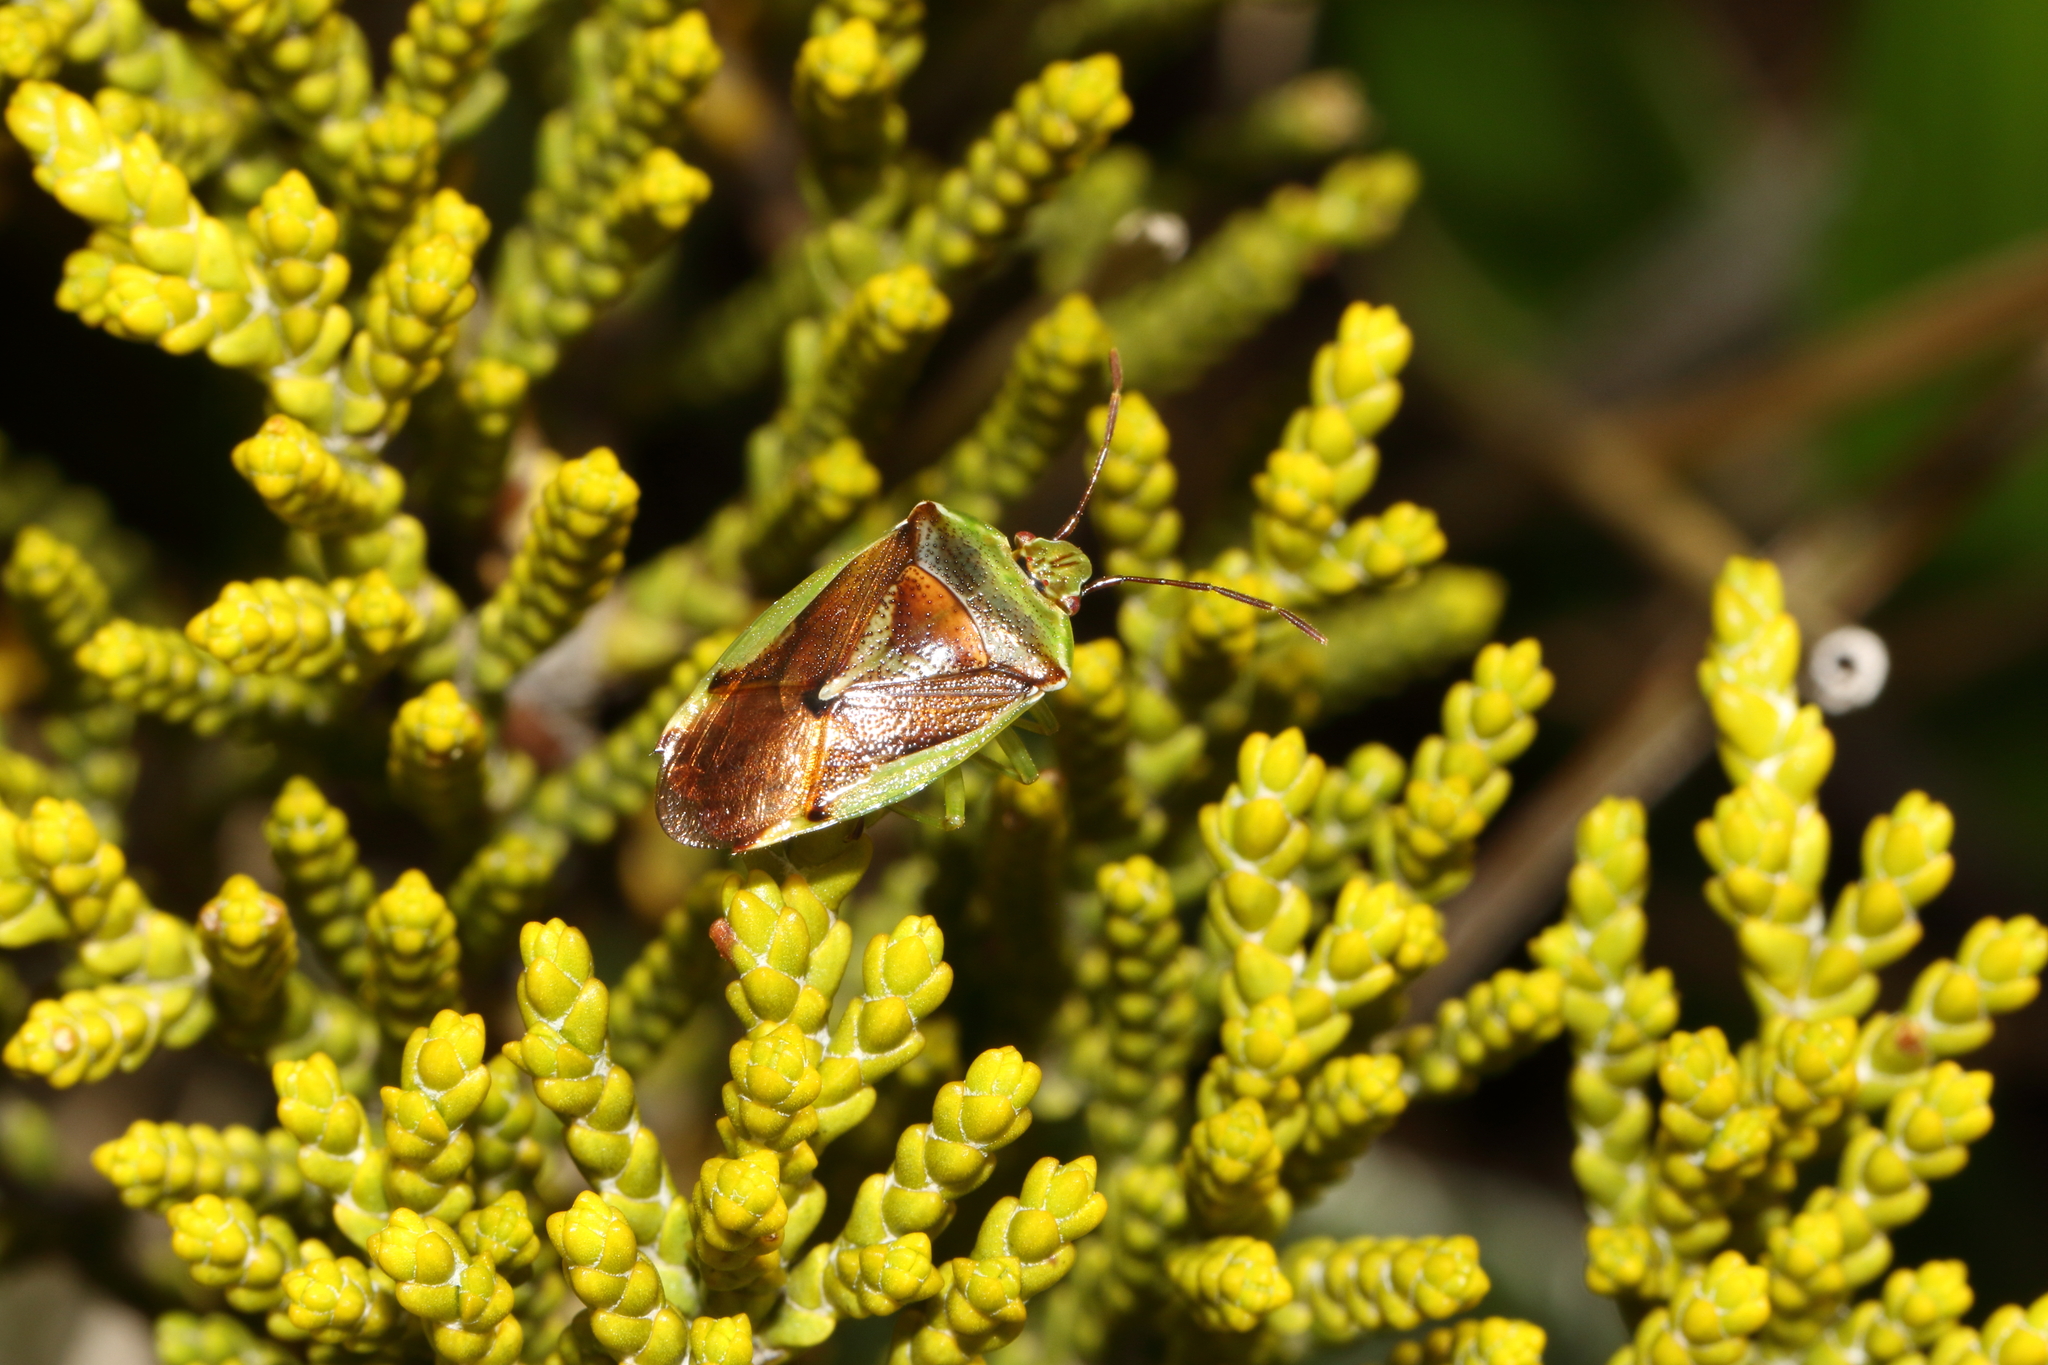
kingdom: Animalia
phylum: Arthropoda
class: Insecta
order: Hemiptera
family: Acanthosomatidae
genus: Oncacontias
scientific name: Oncacontias vittatus
